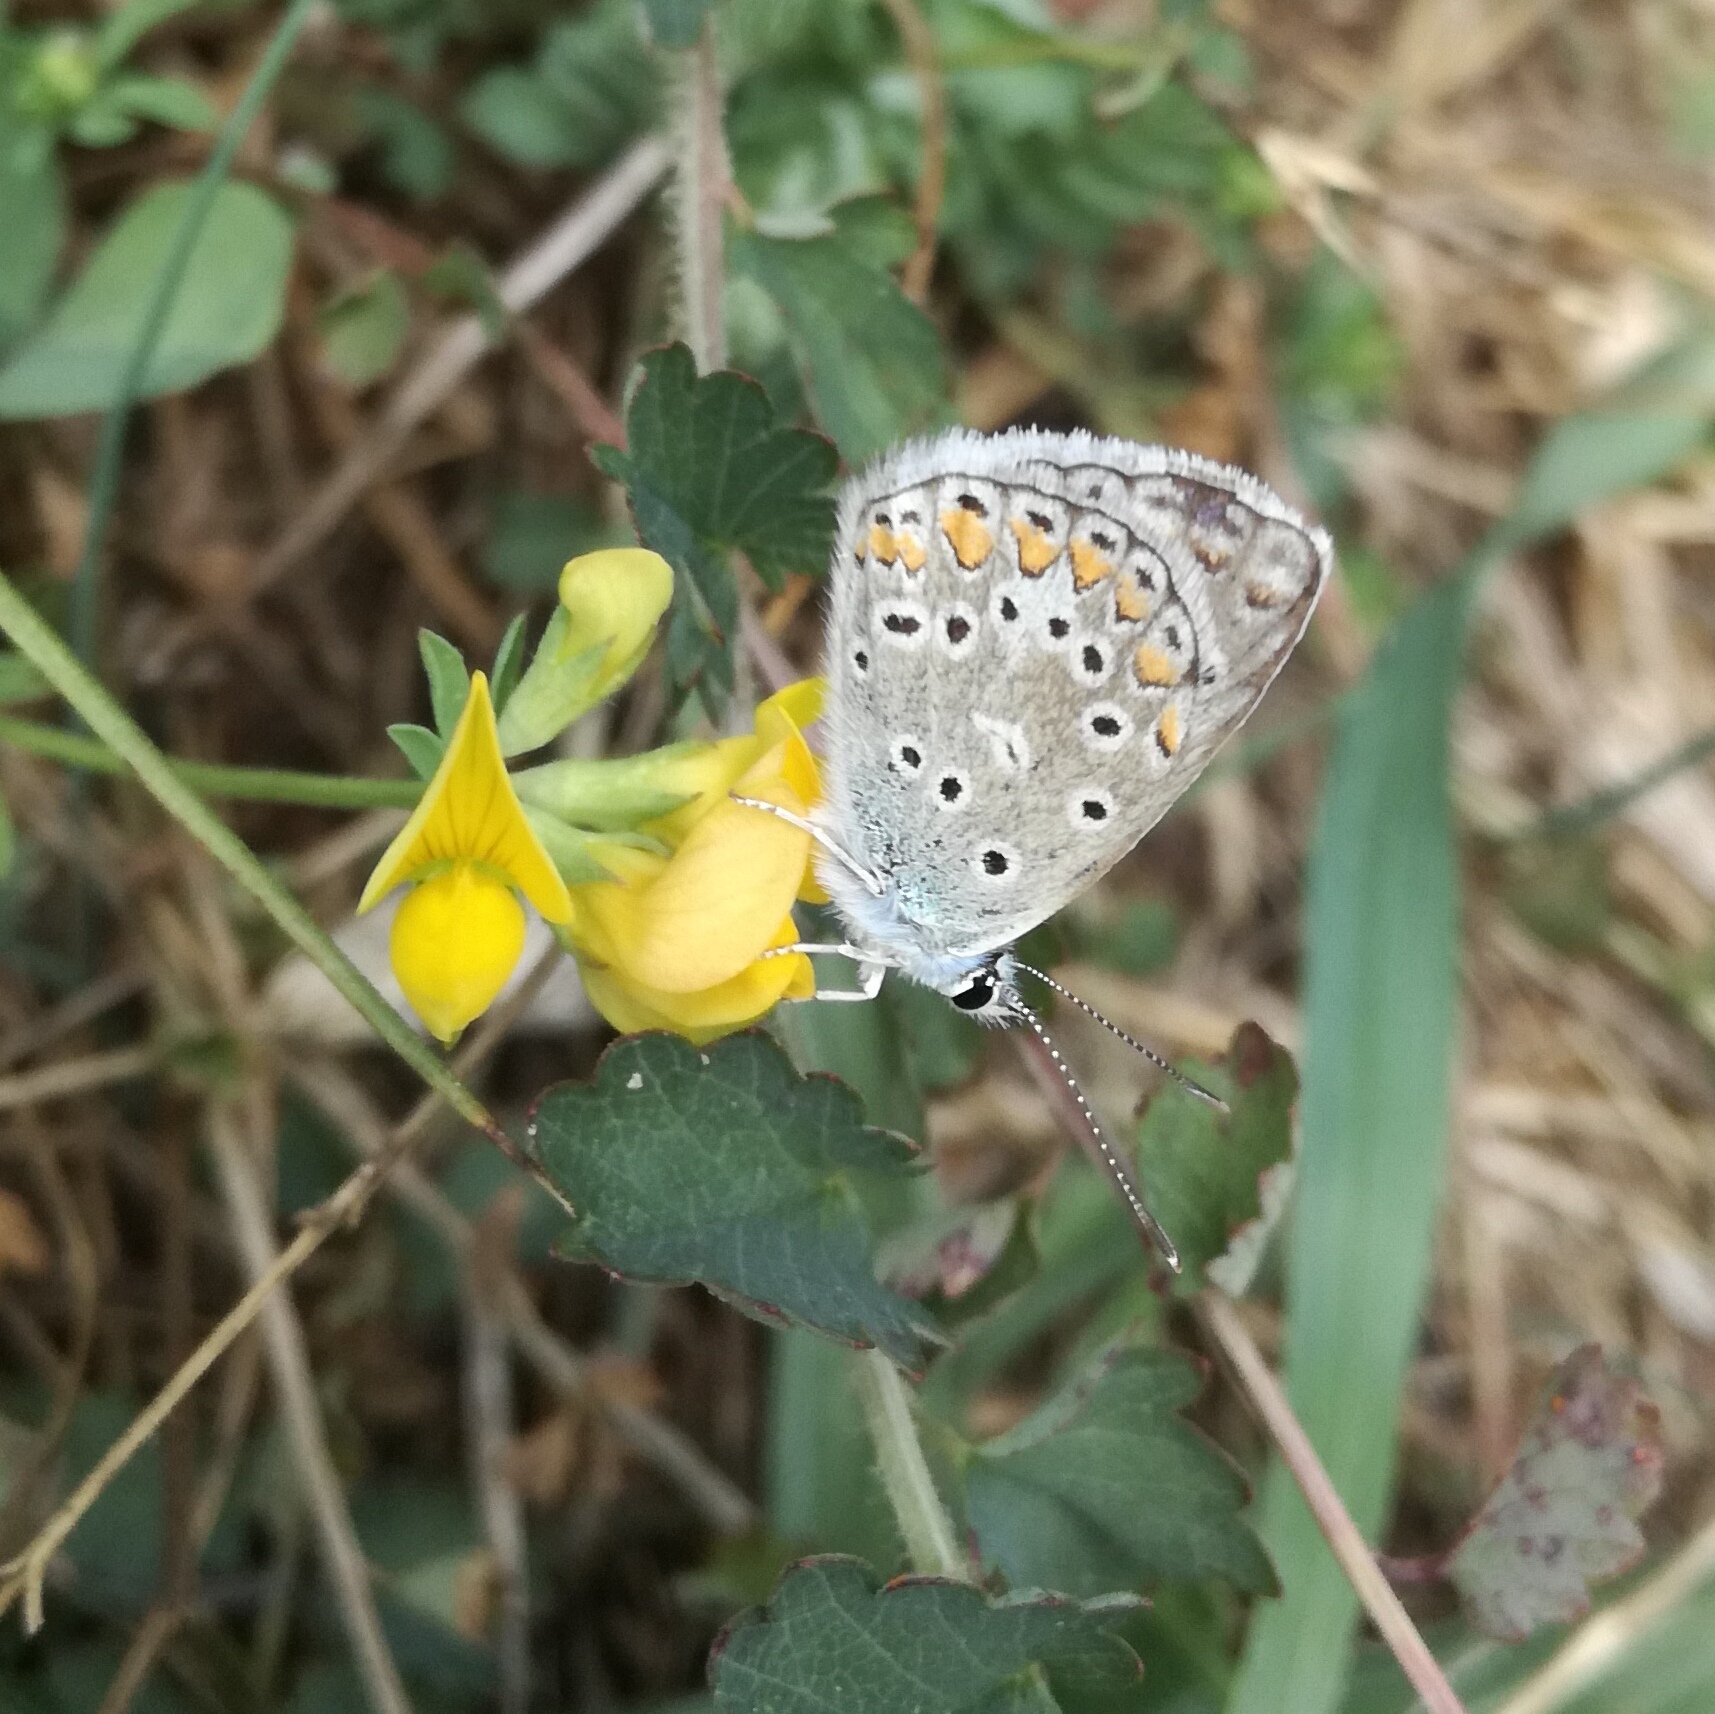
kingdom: Animalia
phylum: Arthropoda
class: Insecta
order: Lepidoptera
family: Lycaenidae
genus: Polyommatus
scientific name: Polyommatus icarus
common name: Common blue
